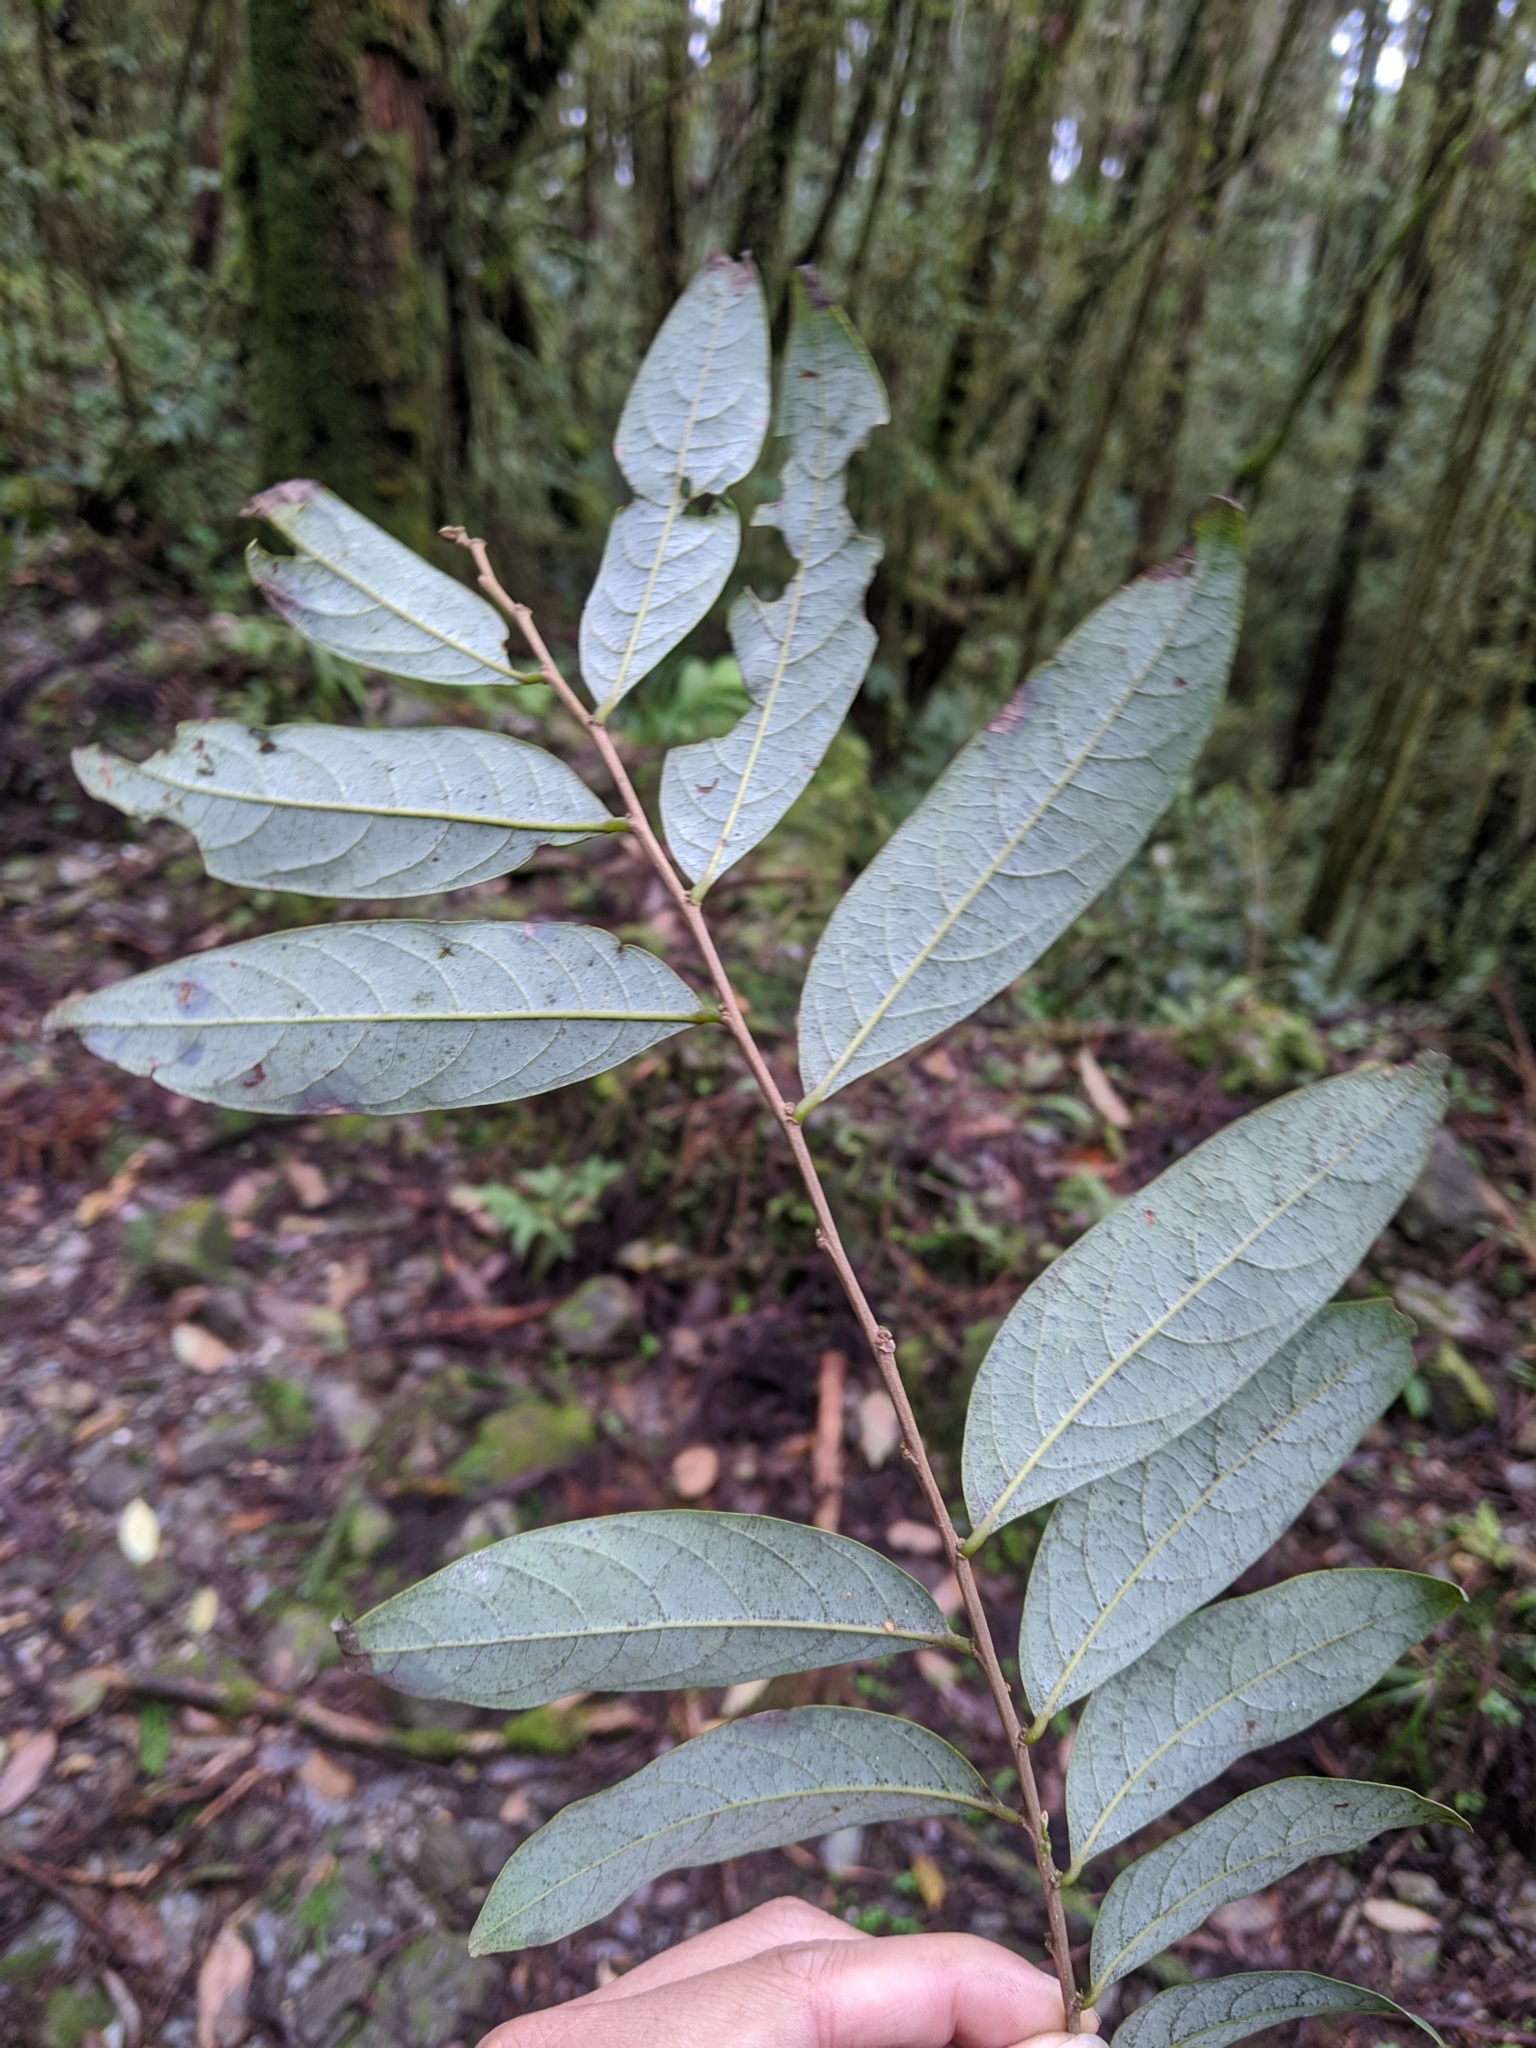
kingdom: Plantae
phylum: Tracheophyta
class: Magnoliopsida
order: Malpighiales
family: Phyllanthaceae
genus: Glochidion
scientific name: Glochidion acuminatum
